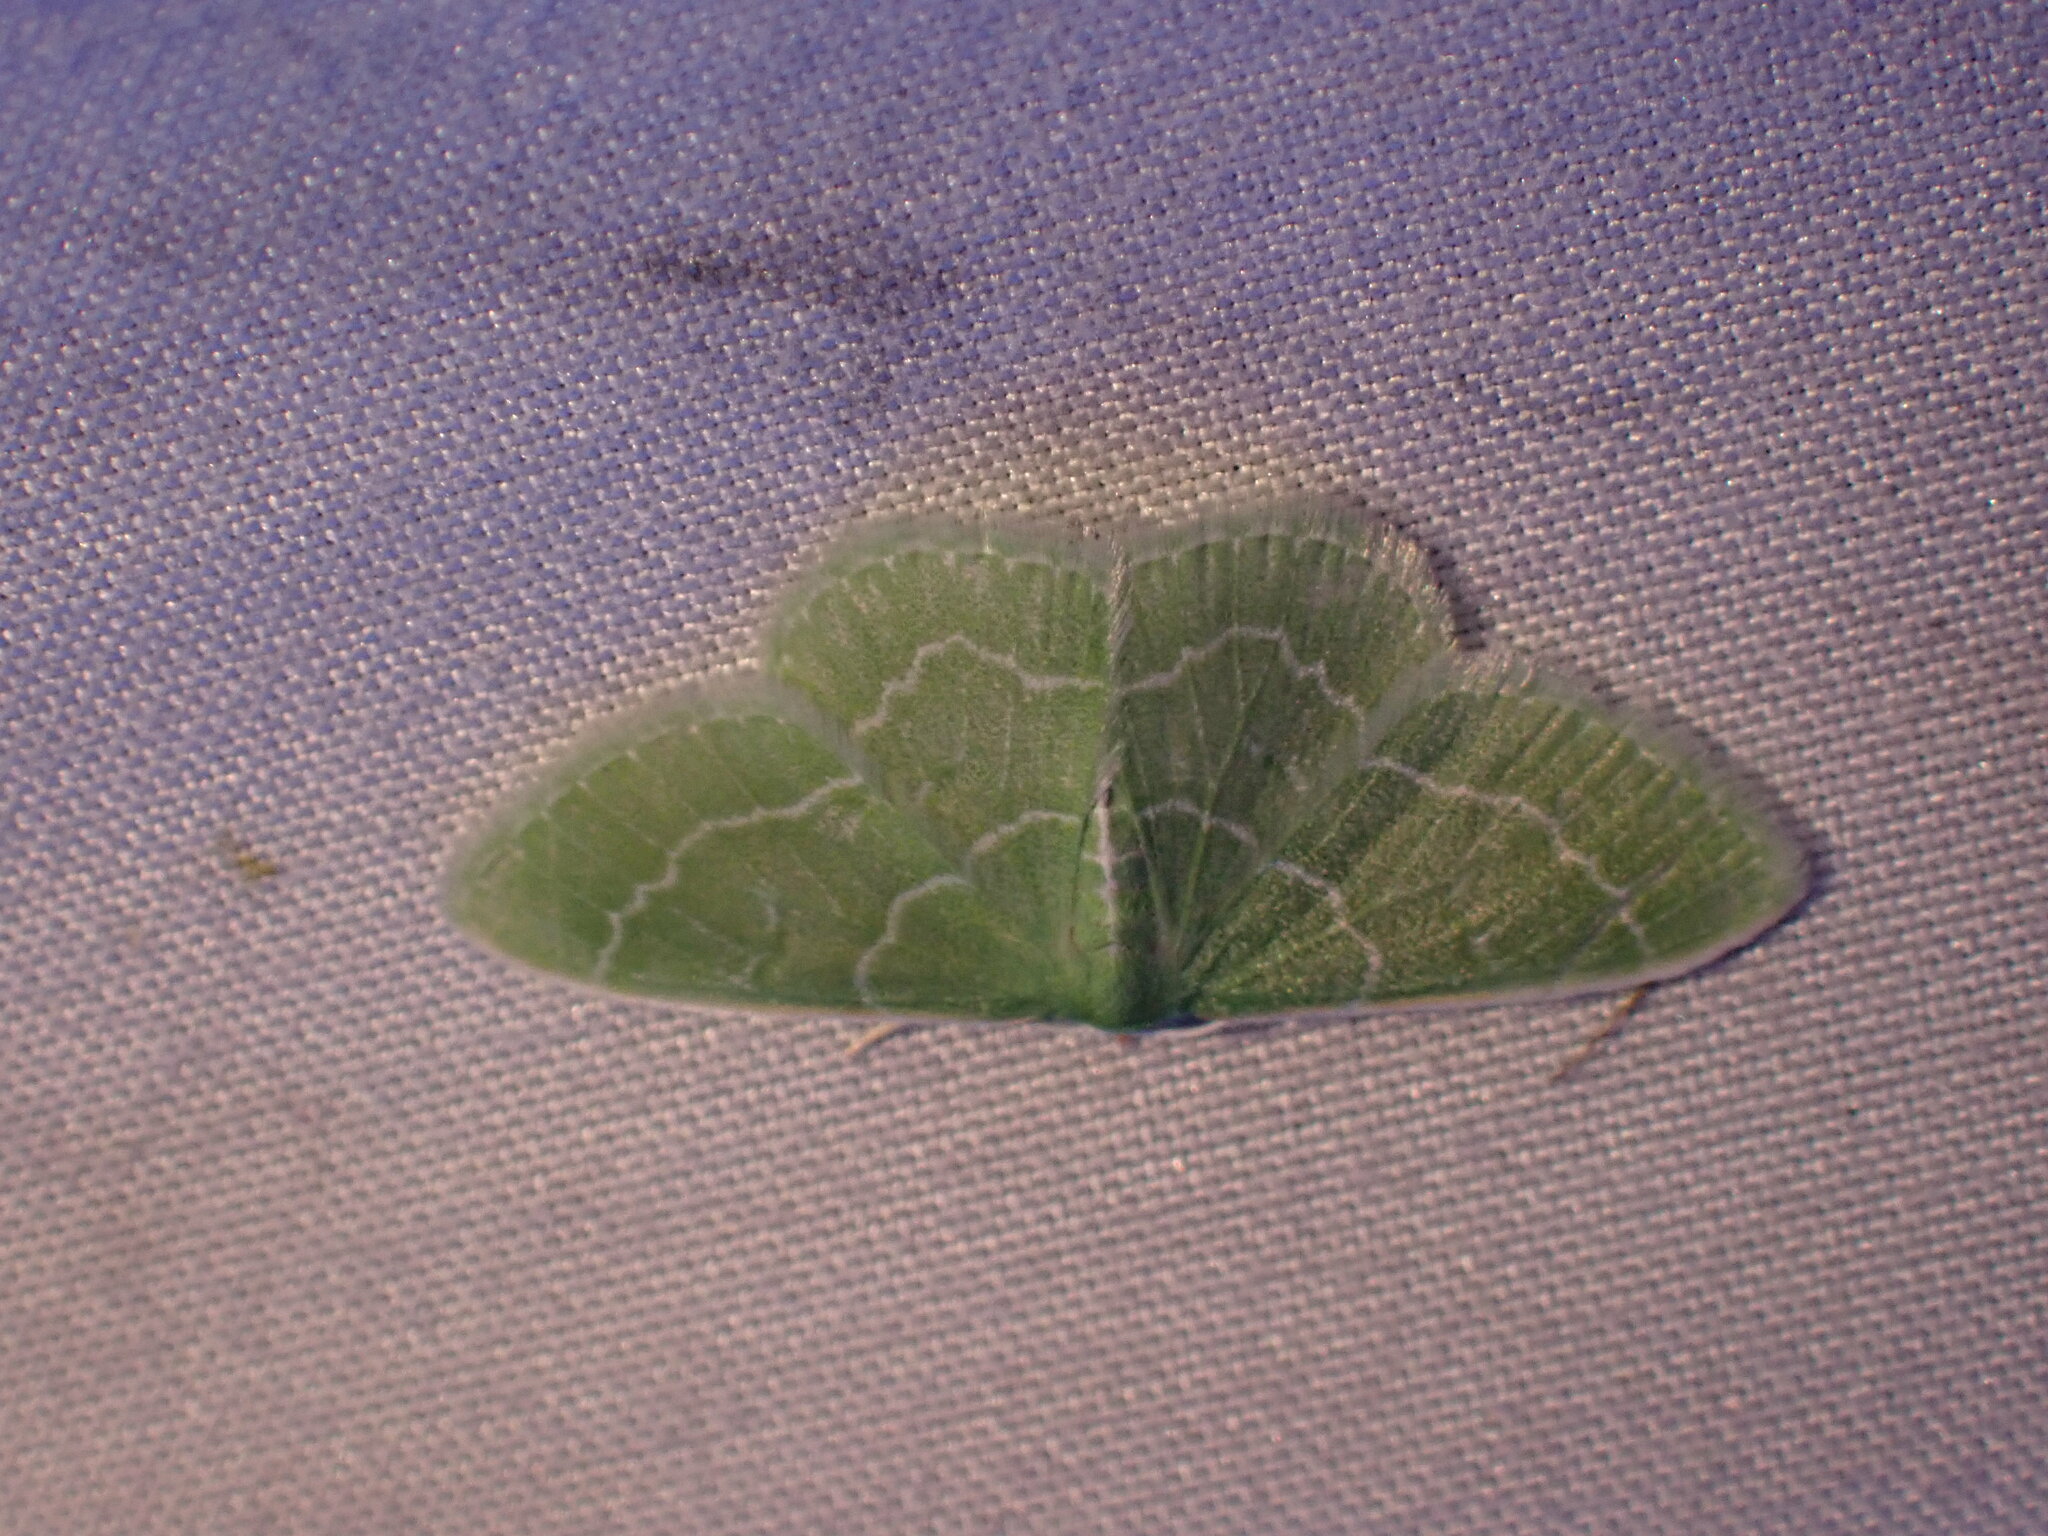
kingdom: Animalia
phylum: Arthropoda
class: Insecta
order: Lepidoptera
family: Geometridae
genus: Synchlora
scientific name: Synchlora aerata
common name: Wavy-lined emerald
